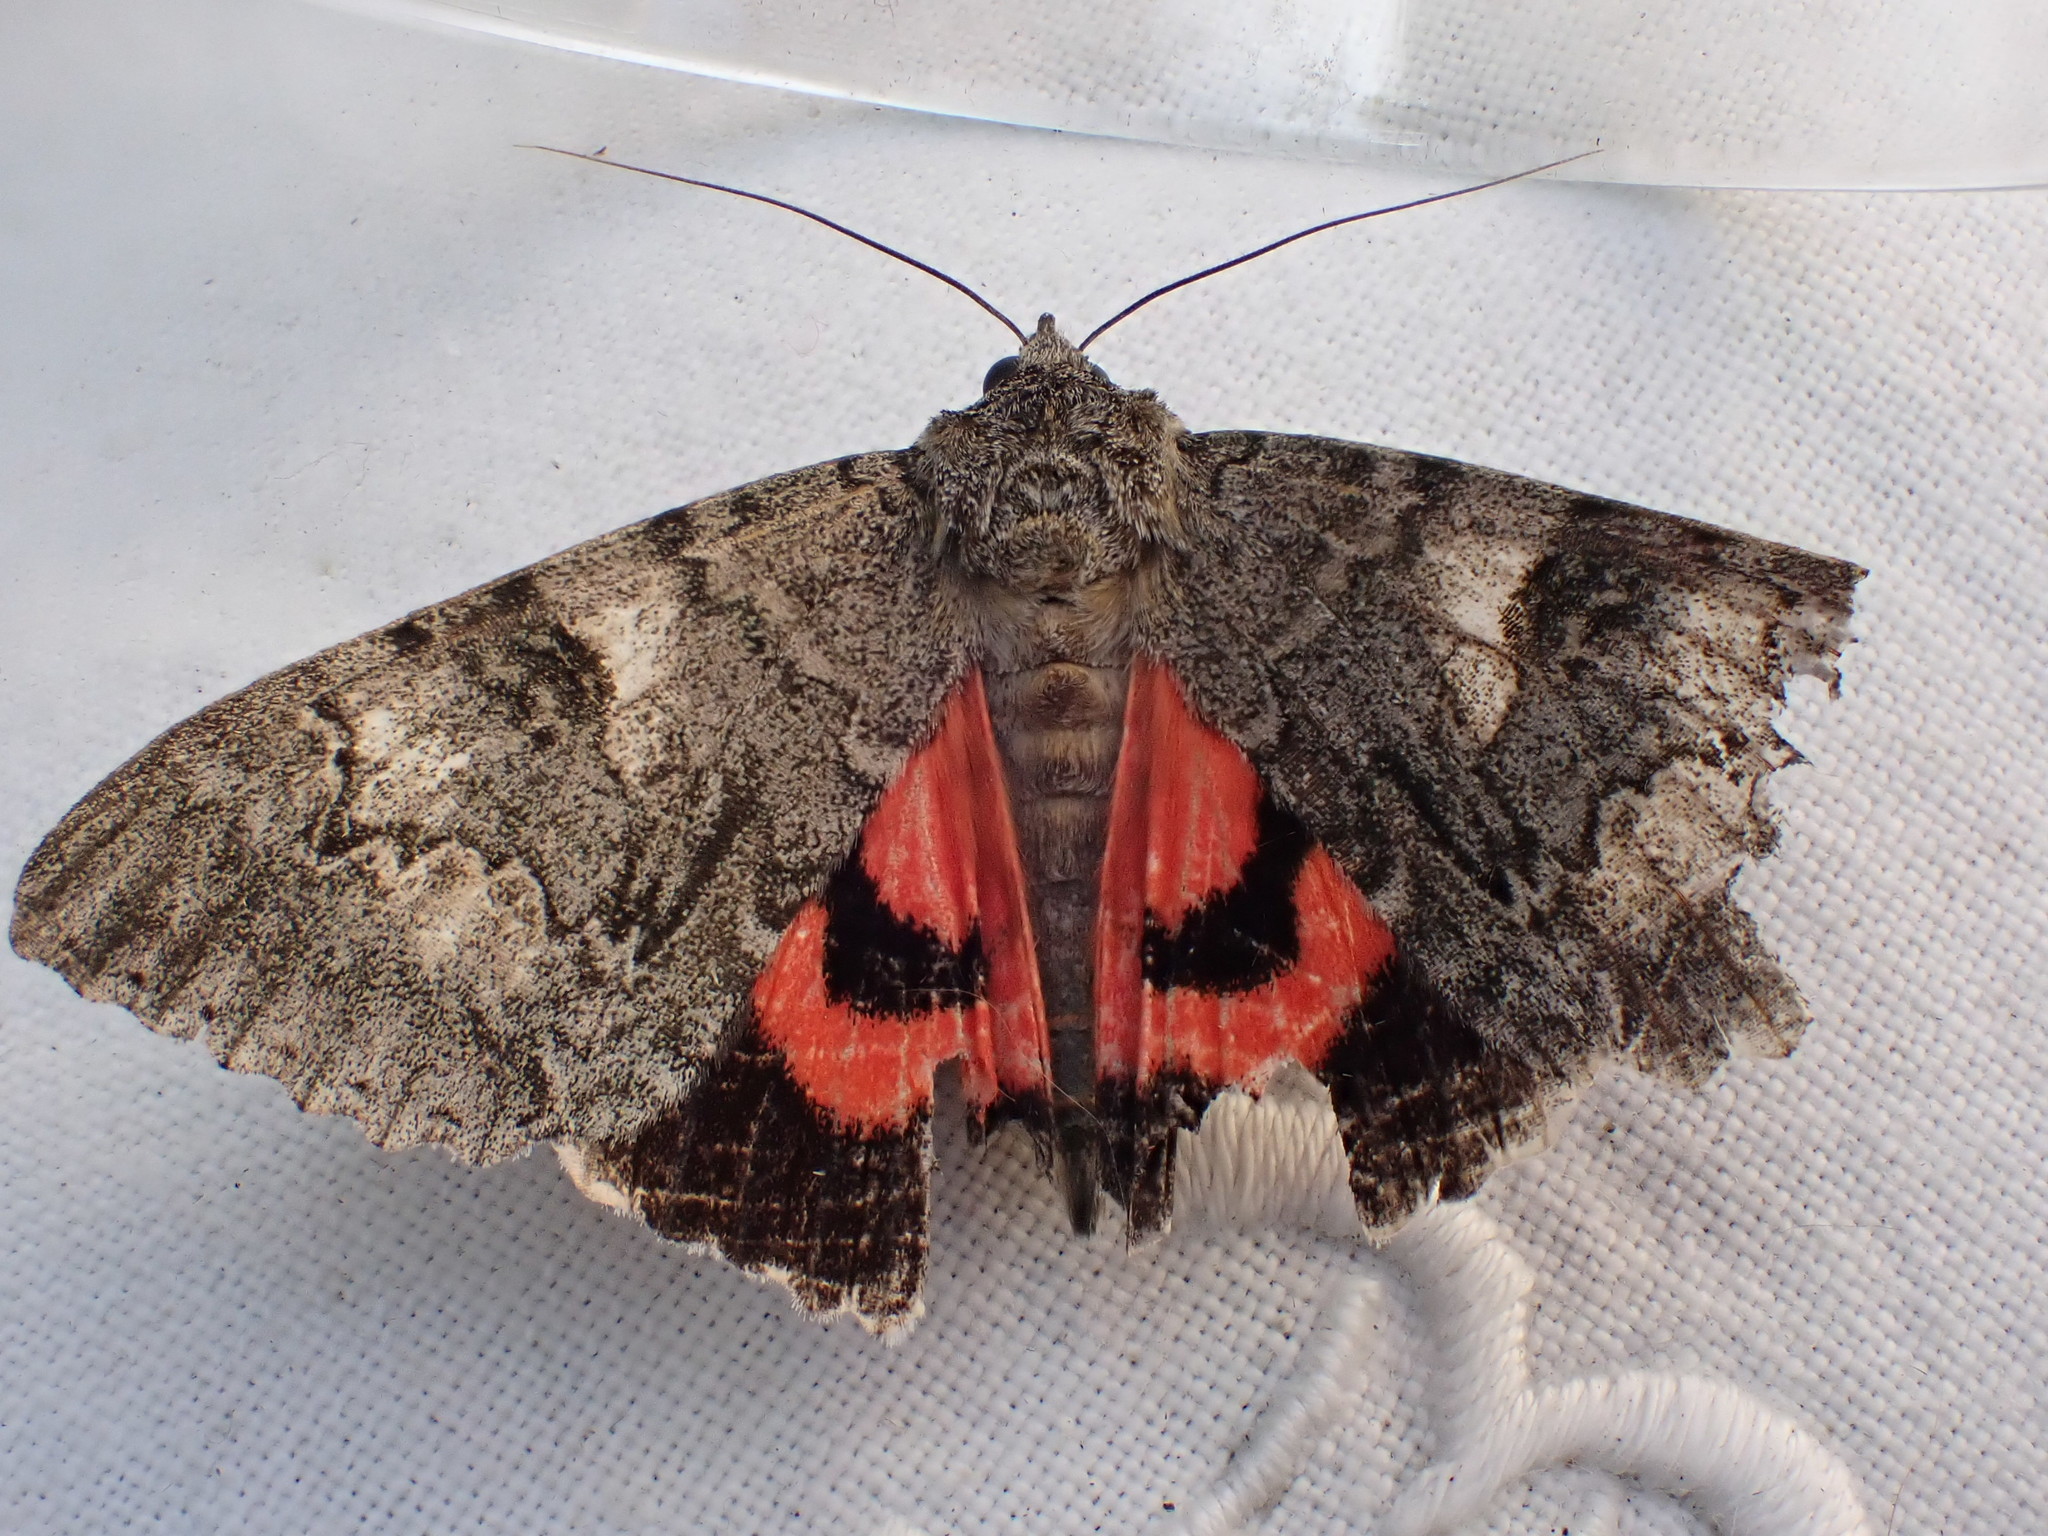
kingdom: Animalia
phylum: Arthropoda
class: Insecta
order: Lepidoptera
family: Erebidae
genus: Catocala
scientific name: Catocala nupta
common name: Red underwing
